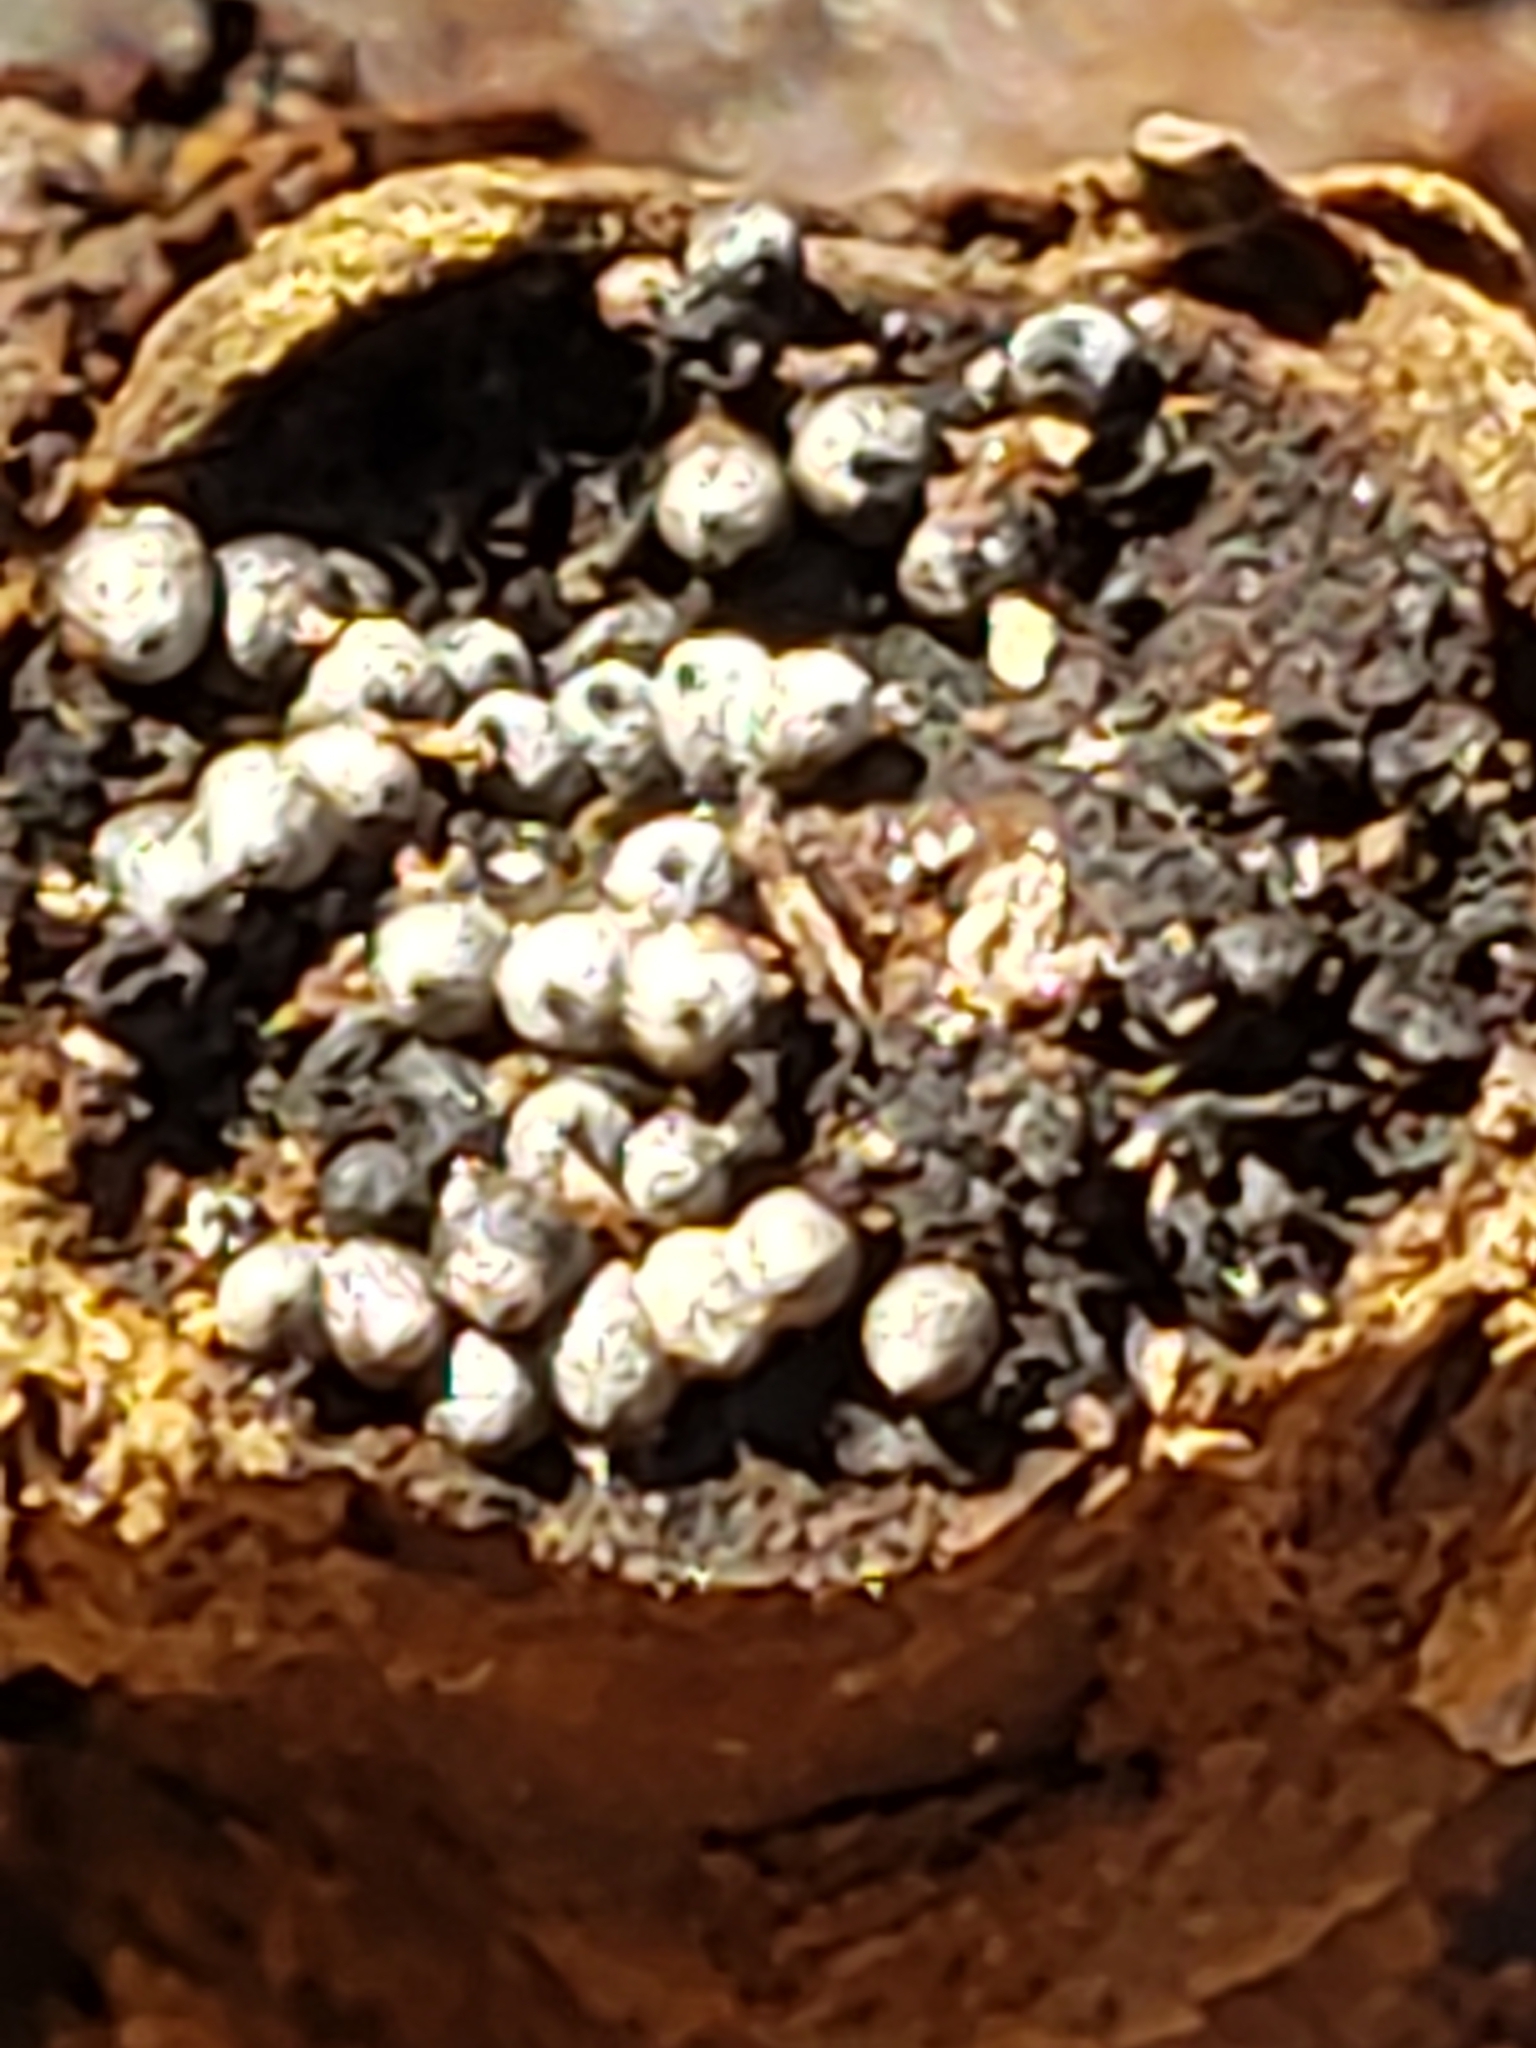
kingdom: Fungi
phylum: Ascomycota
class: Sordariomycetes
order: Sordariales
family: Lasiosphaeriaceae
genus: Lasiosphaeria
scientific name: Lasiosphaeria ovina
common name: Woolly woodwart
